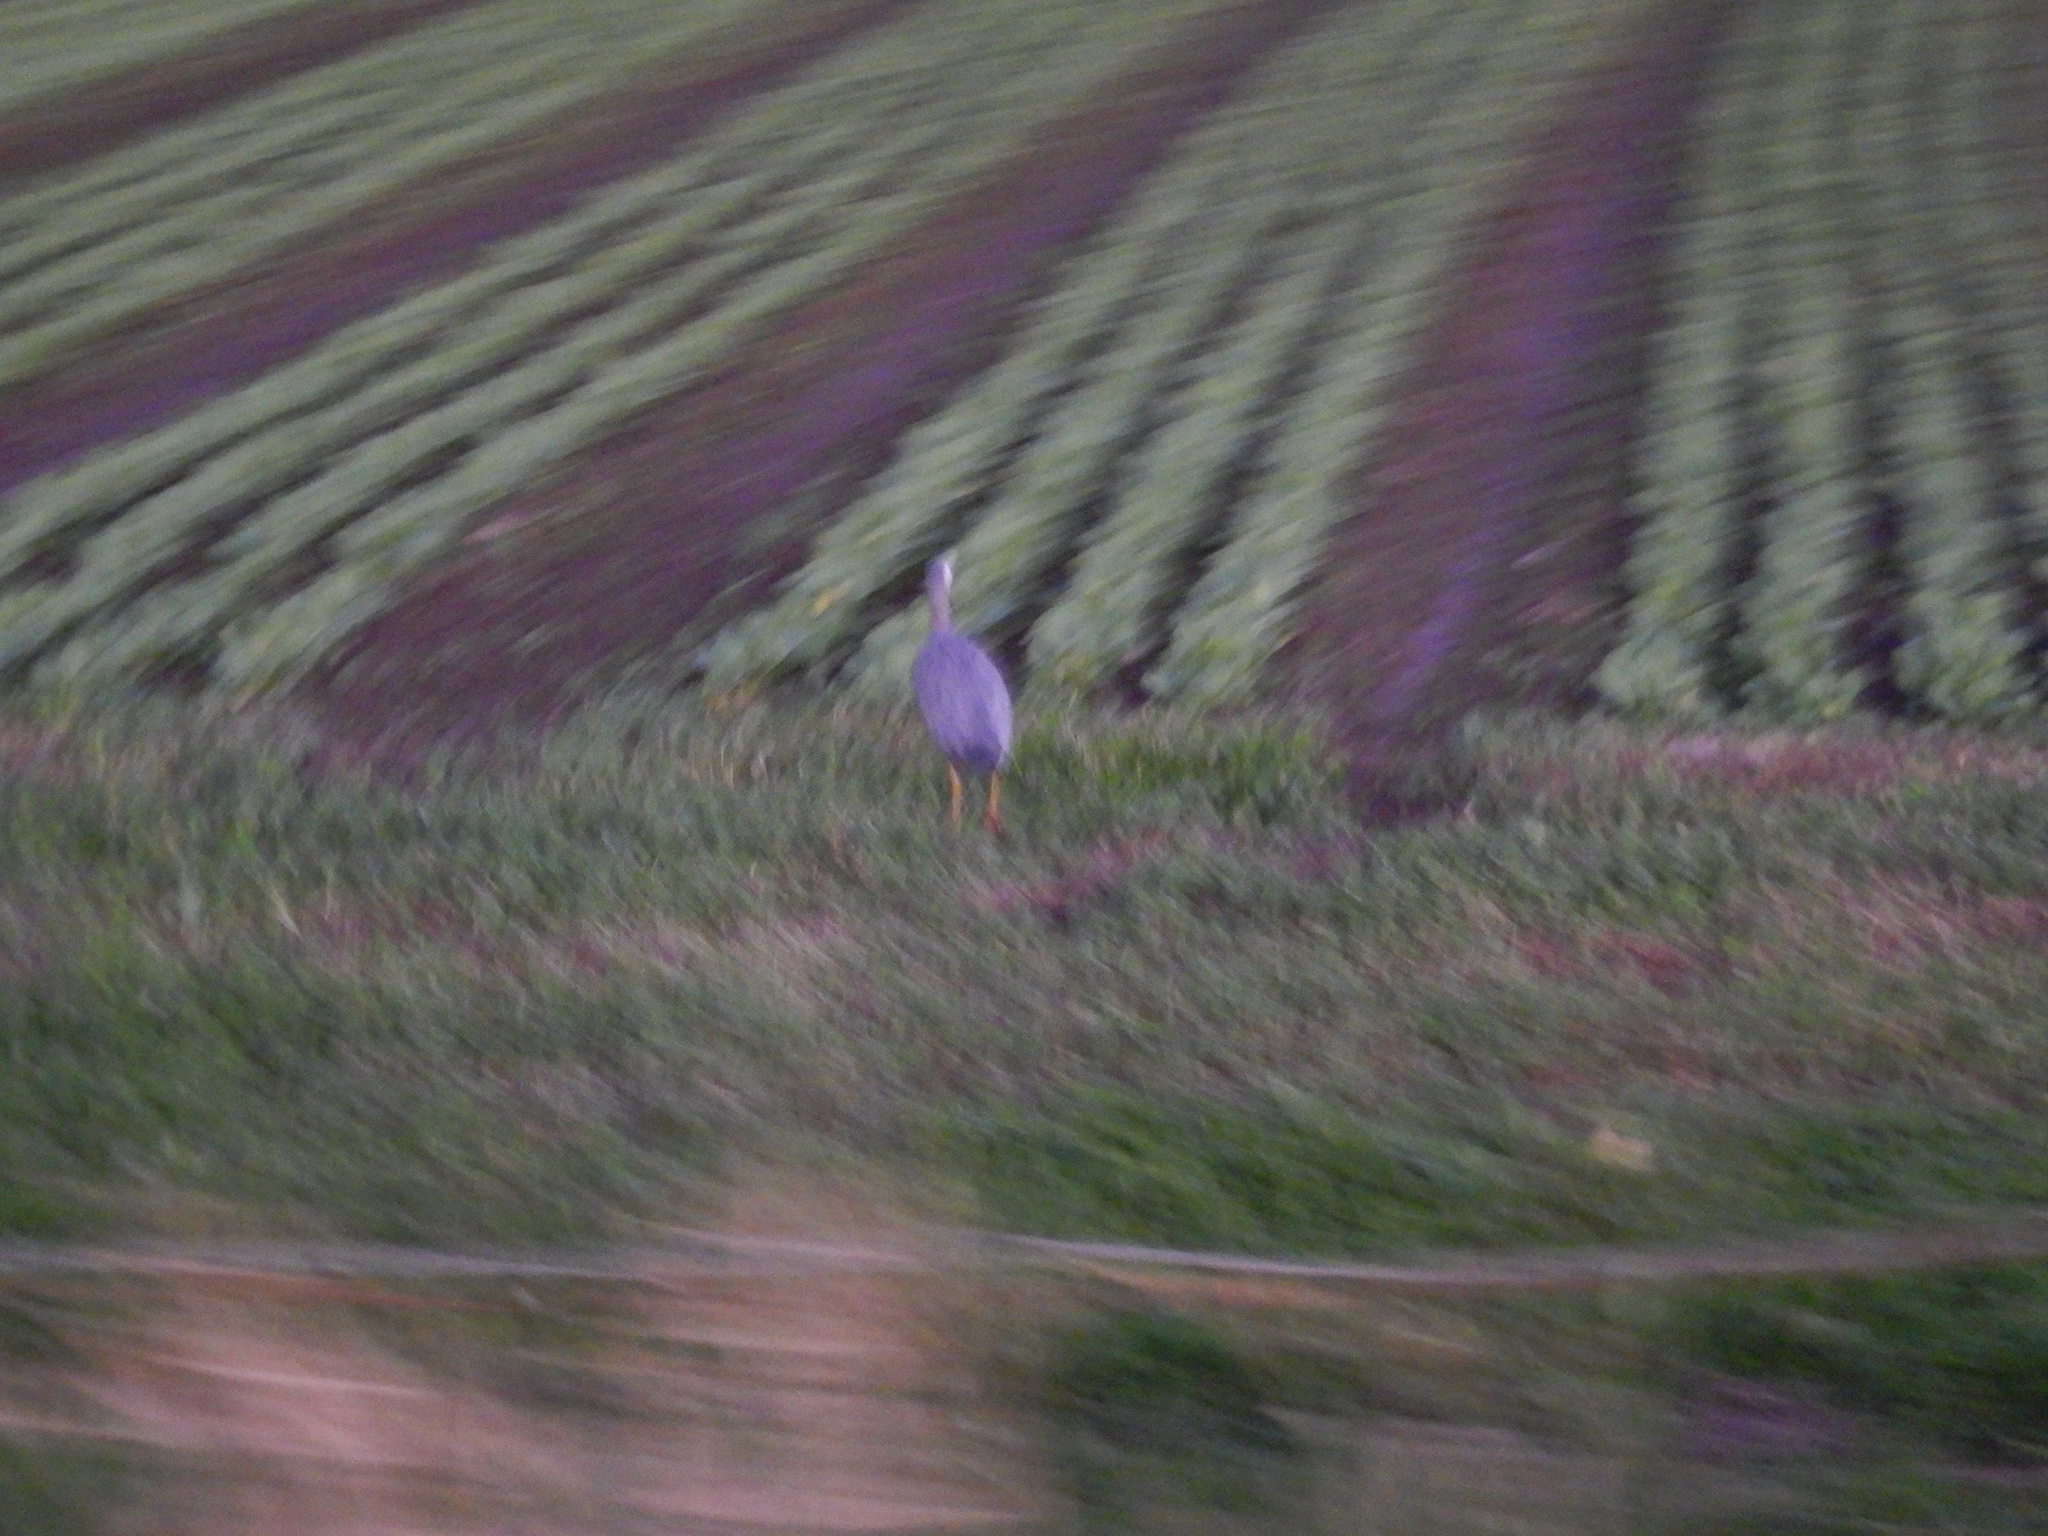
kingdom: Animalia
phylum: Chordata
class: Aves
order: Pelecaniformes
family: Ardeidae
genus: Egretta
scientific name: Egretta novaehollandiae
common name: White-faced heron
